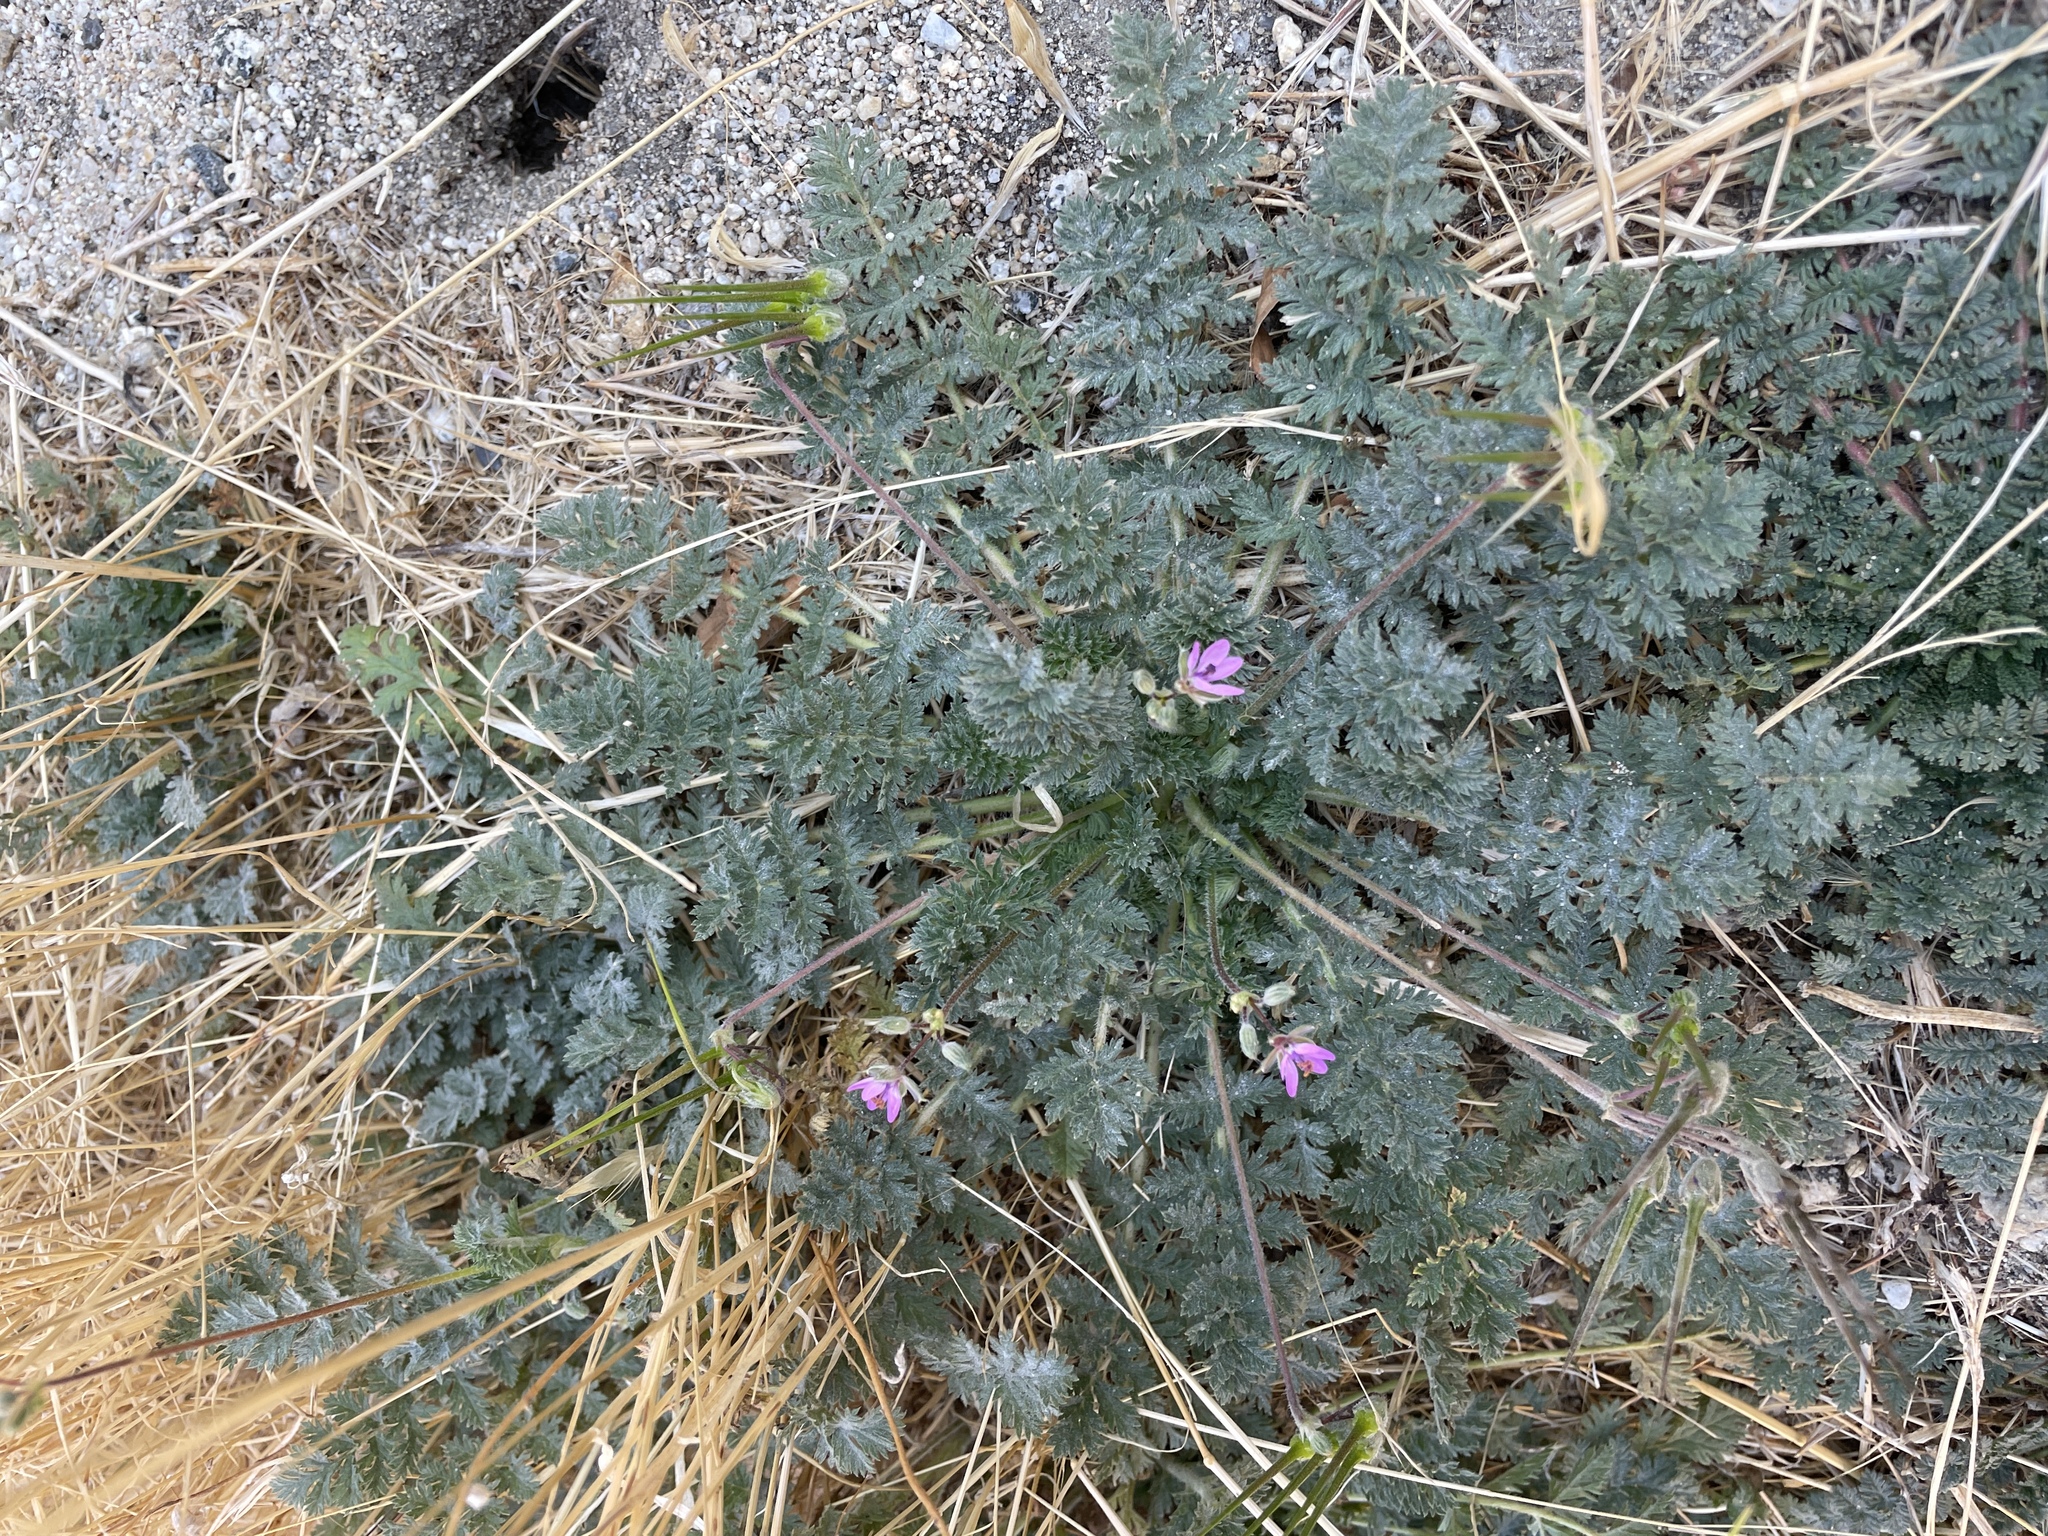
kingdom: Plantae
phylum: Tracheophyta
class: Magnoliopsida
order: Geraniales
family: Geraniaceae
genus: Erodium
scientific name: Erodium cicutarium
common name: Common stork's-bill
